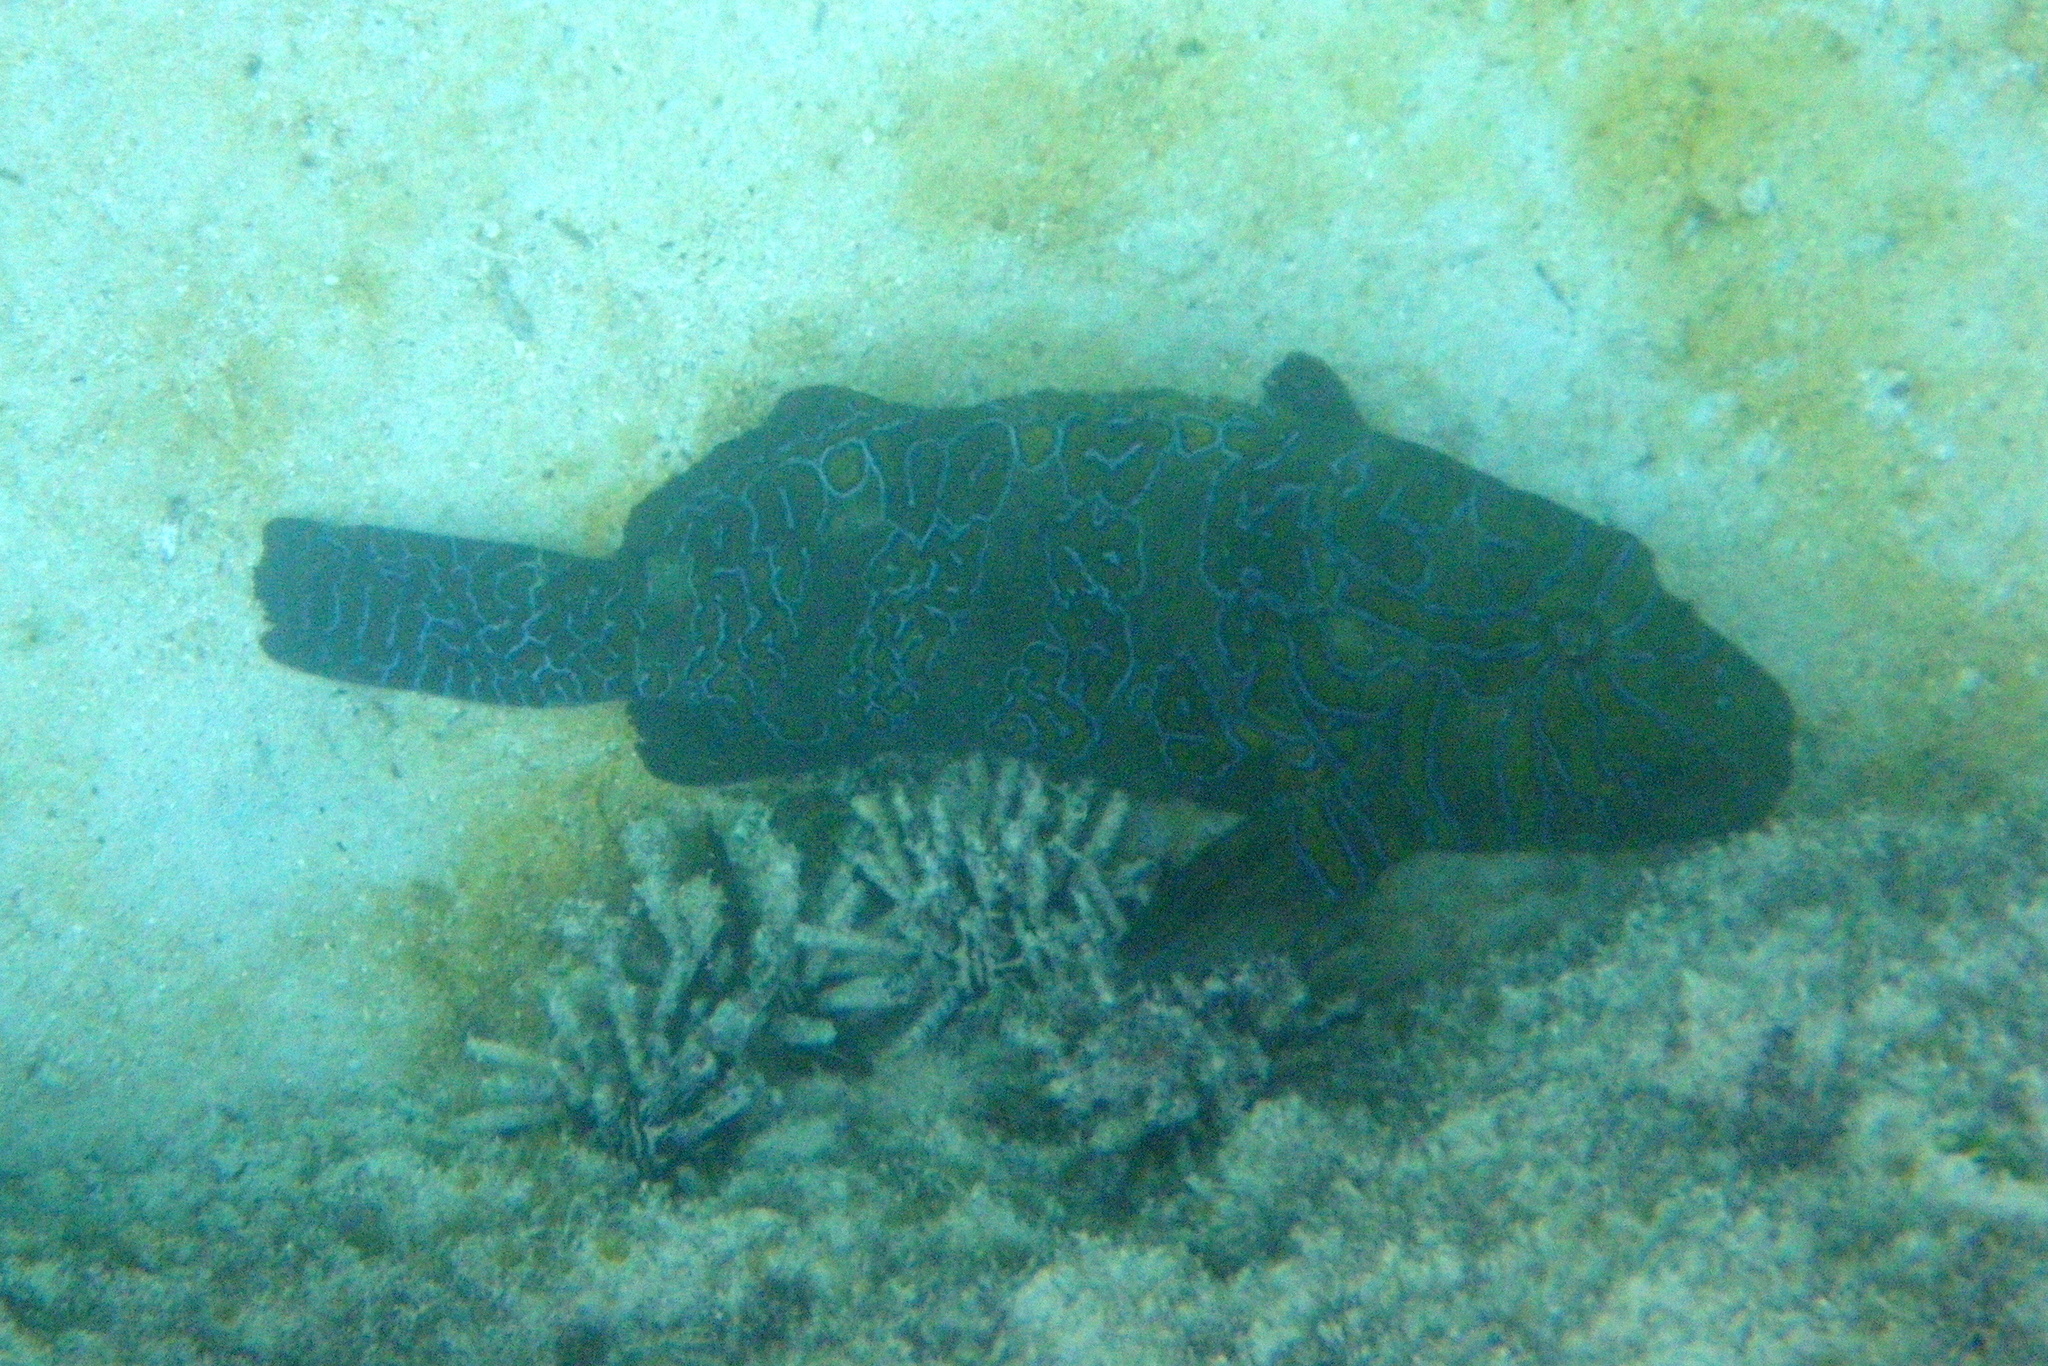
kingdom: Animalia
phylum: Chordata
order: Perciformes
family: Cirrhitidae
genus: Cirrhitus
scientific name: Cirrhitus rivulatus
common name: Giant hawkfish
